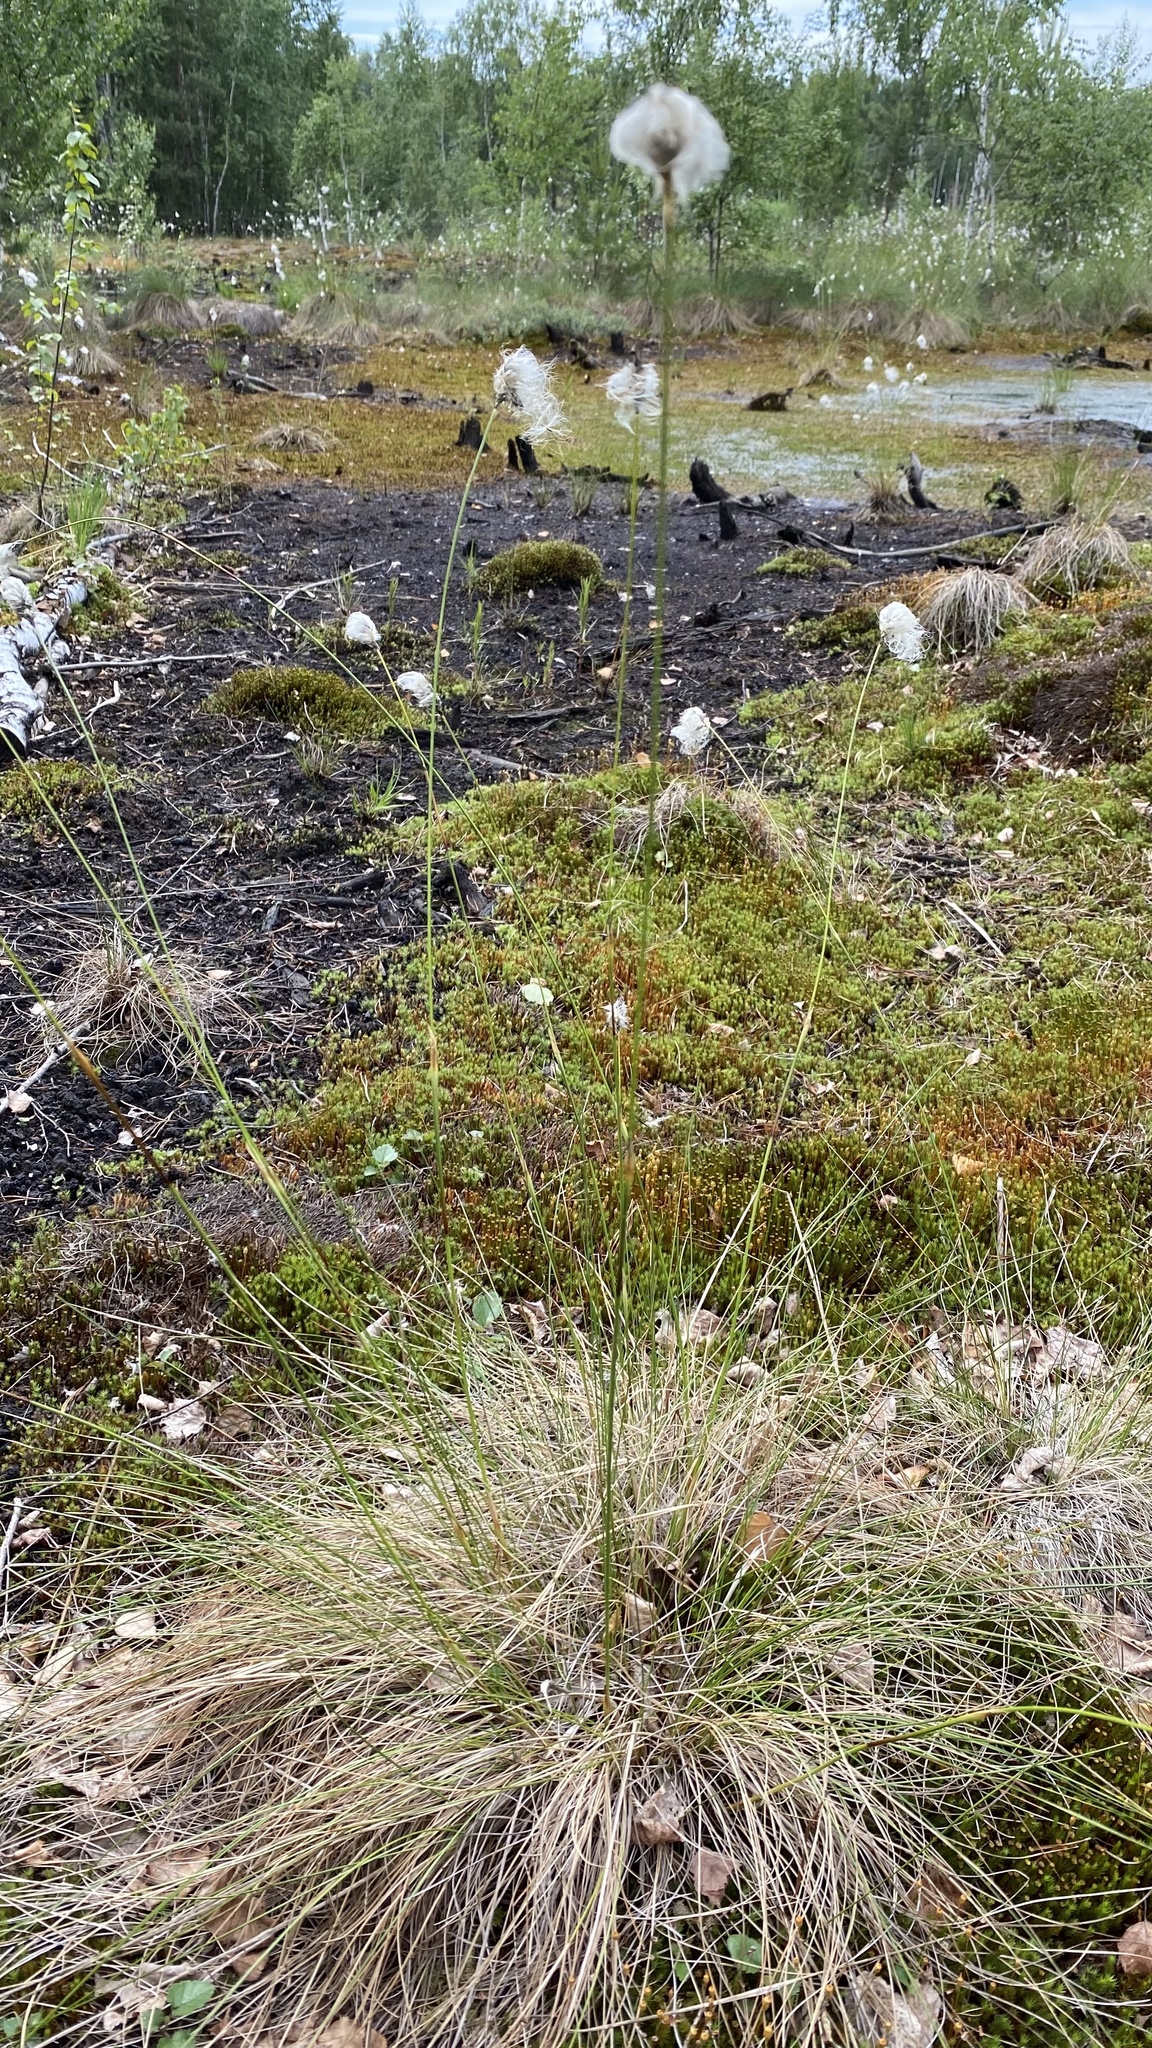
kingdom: Plantae
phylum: Tracheophyta
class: Liliopsida
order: Poales
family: Cyperaceae
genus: Eriophorum
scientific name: Eriophorum vaginatum
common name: Hare's-tail cottongrass
